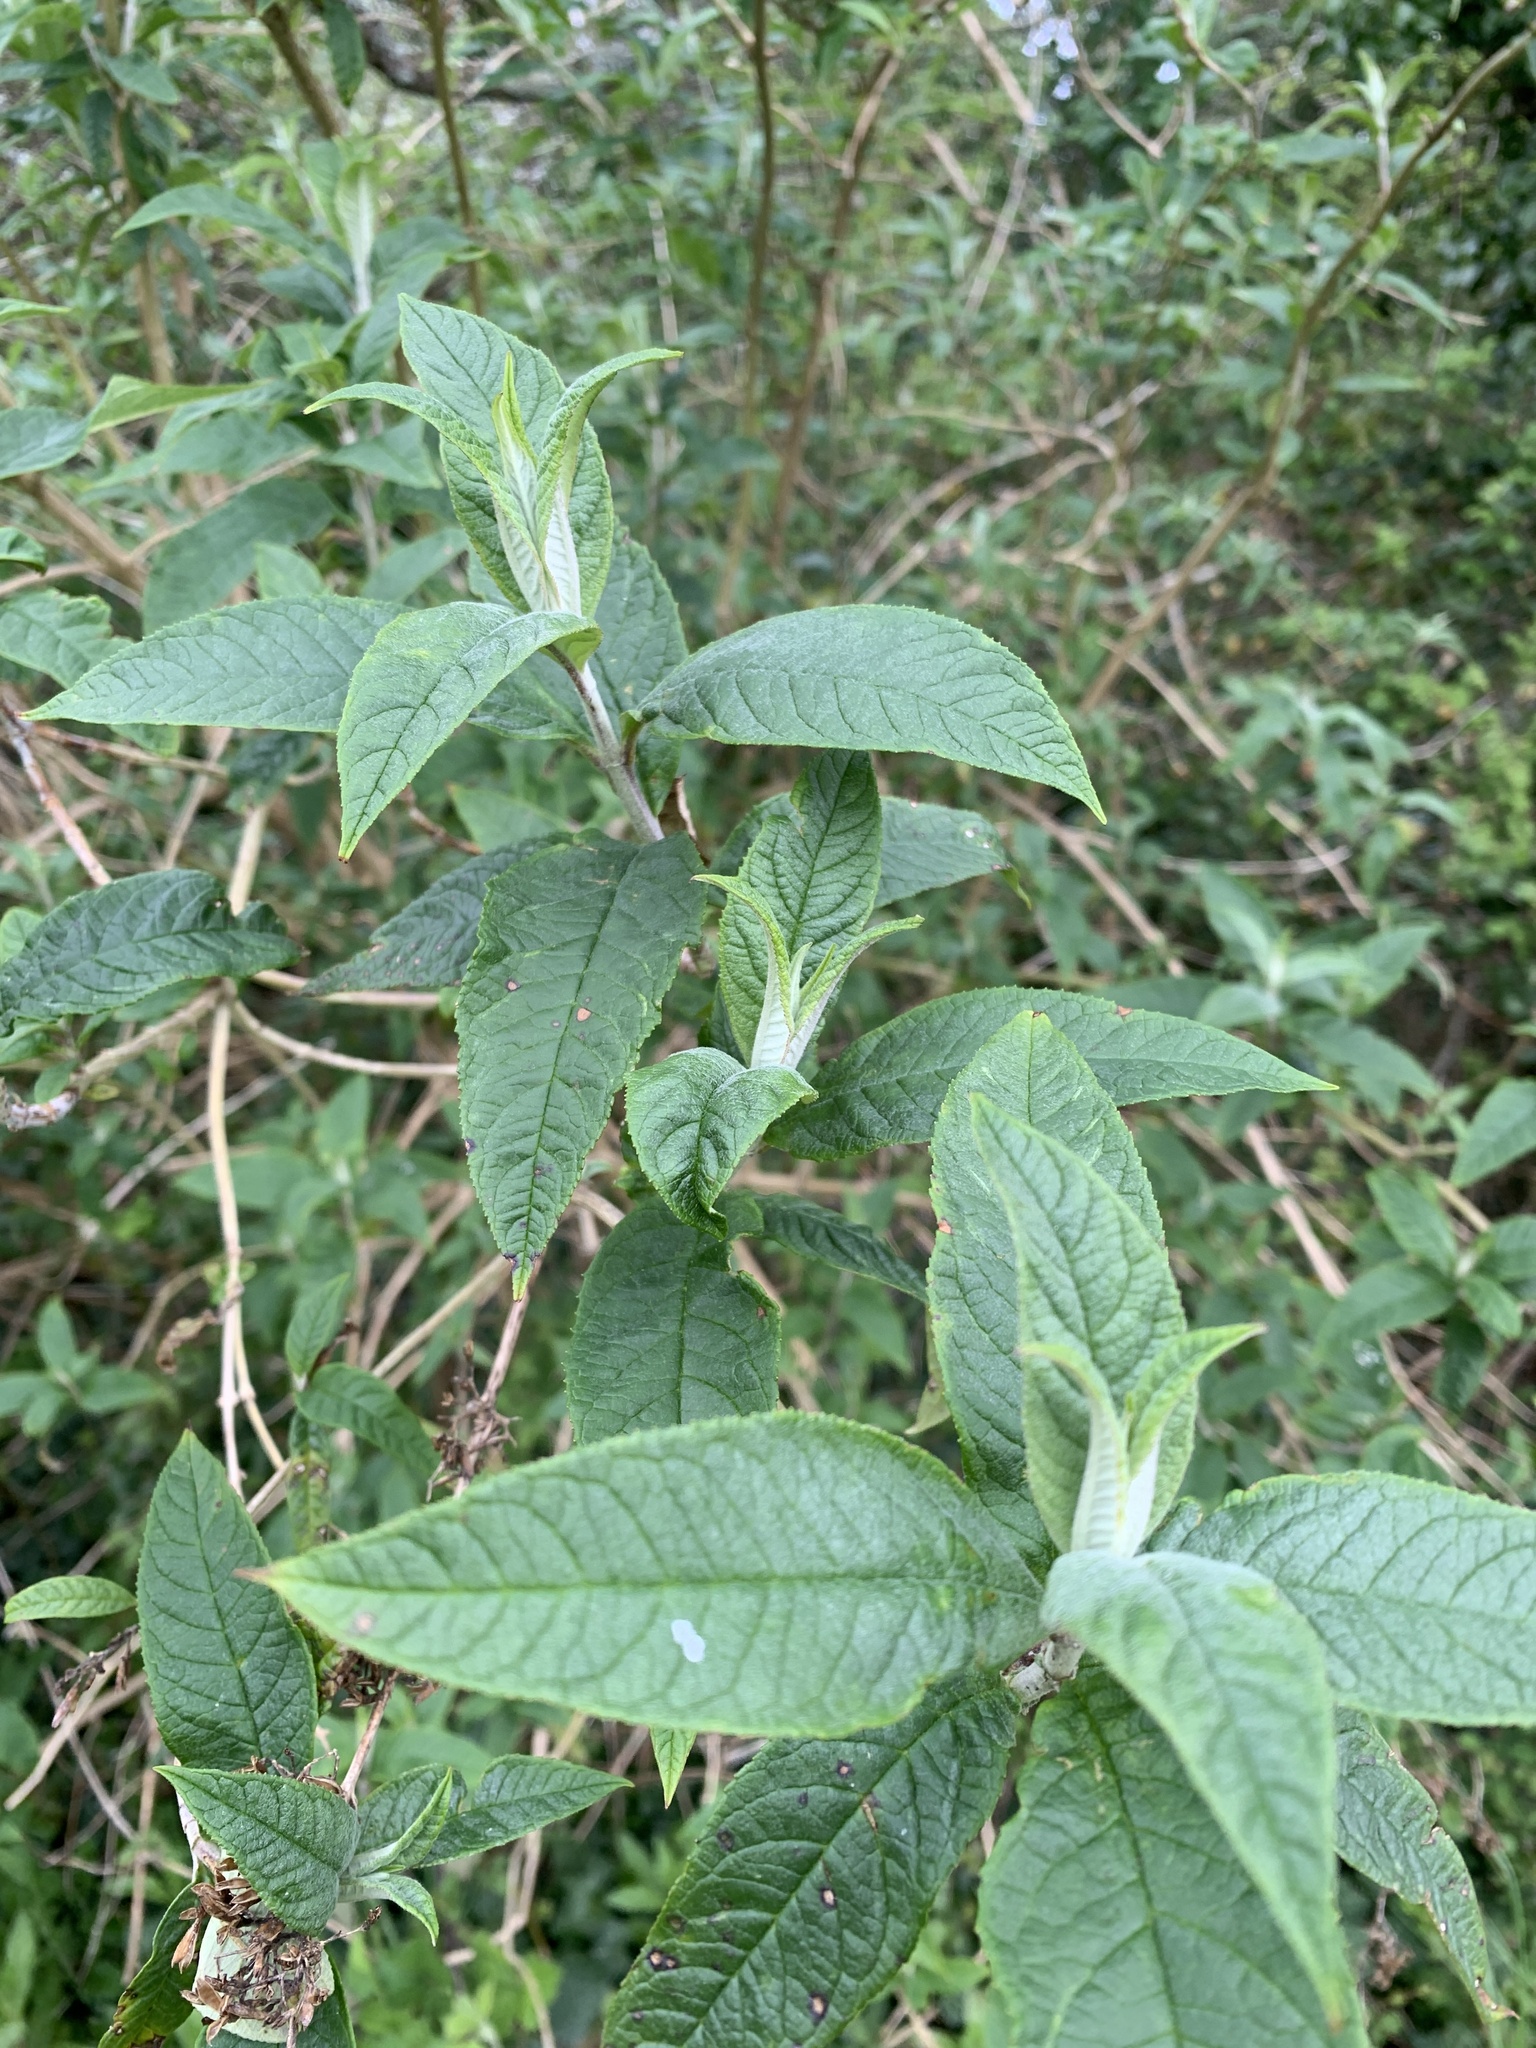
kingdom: Plantae
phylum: Tracheophyta
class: Magnoliopsida
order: Lamiales
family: Scrophulariaceae
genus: Buddleja
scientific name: Buddleja davidii
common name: Butterfly-bush
